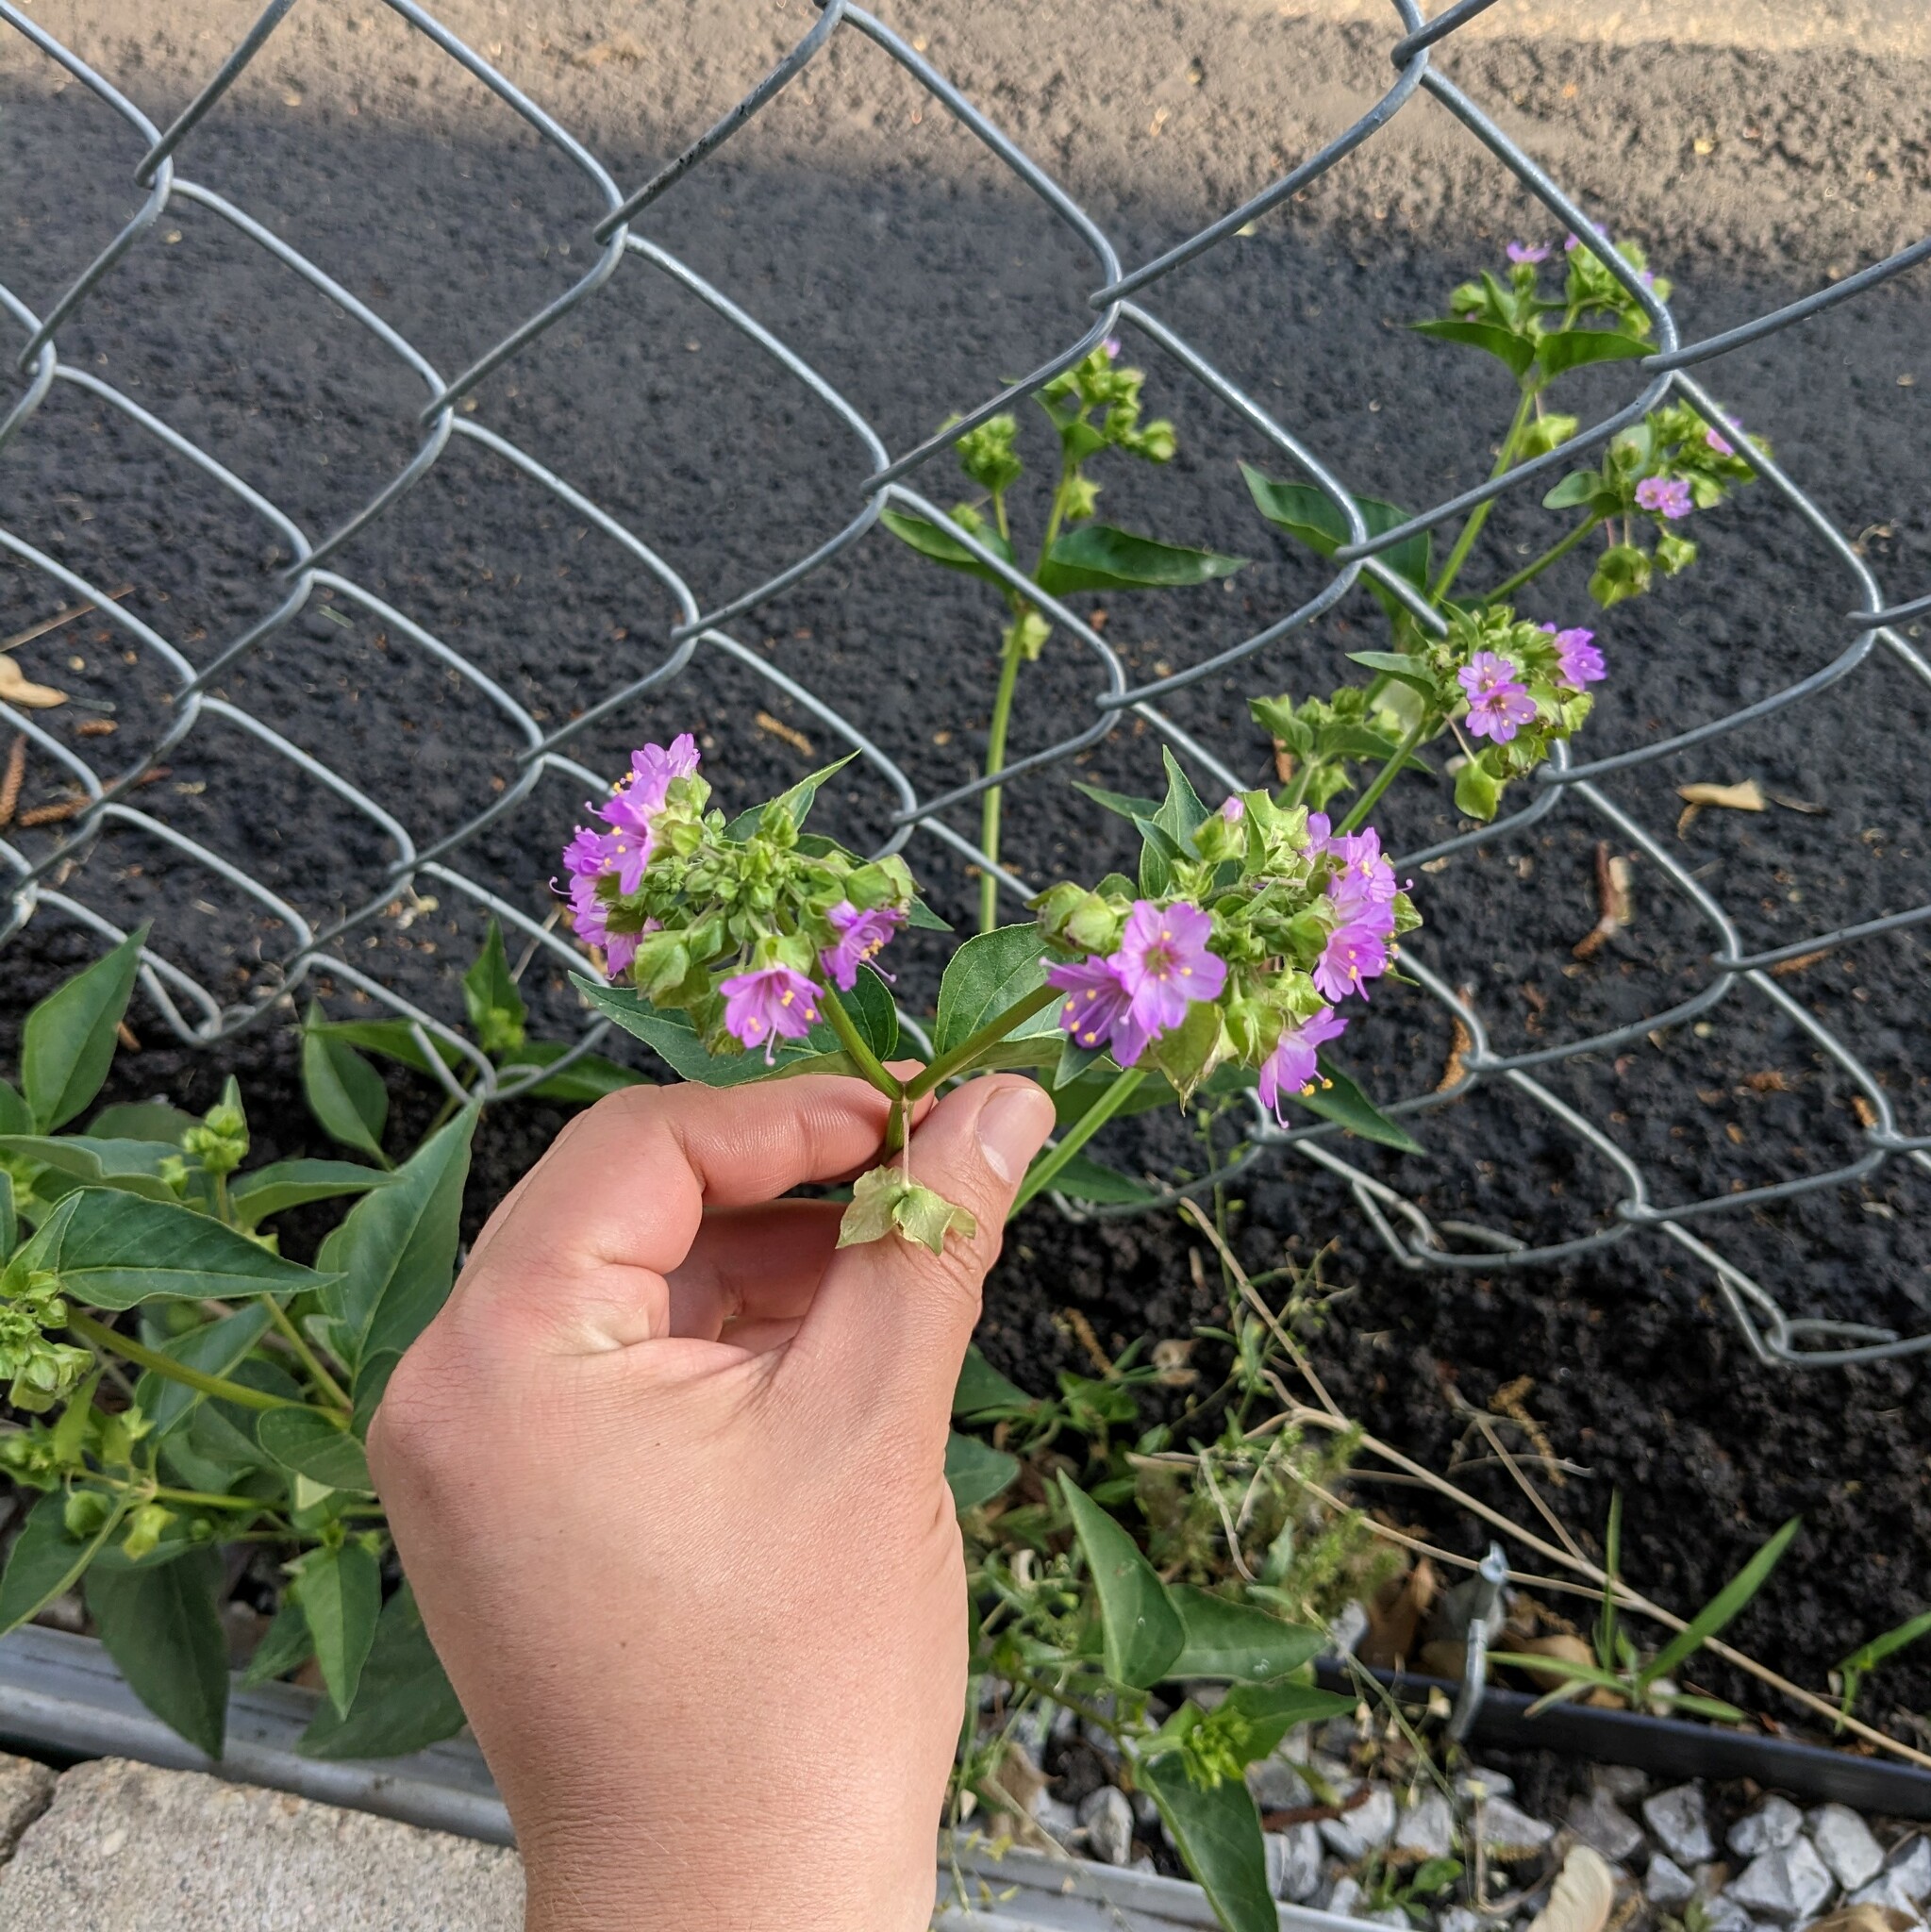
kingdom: Plantae
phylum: Tracheophyta
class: Magnoliopsida
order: Caryophyllales
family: Nyctaginaceae
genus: Mirabilis
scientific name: Mirabilis nyctaginea
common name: Umbrella wort
